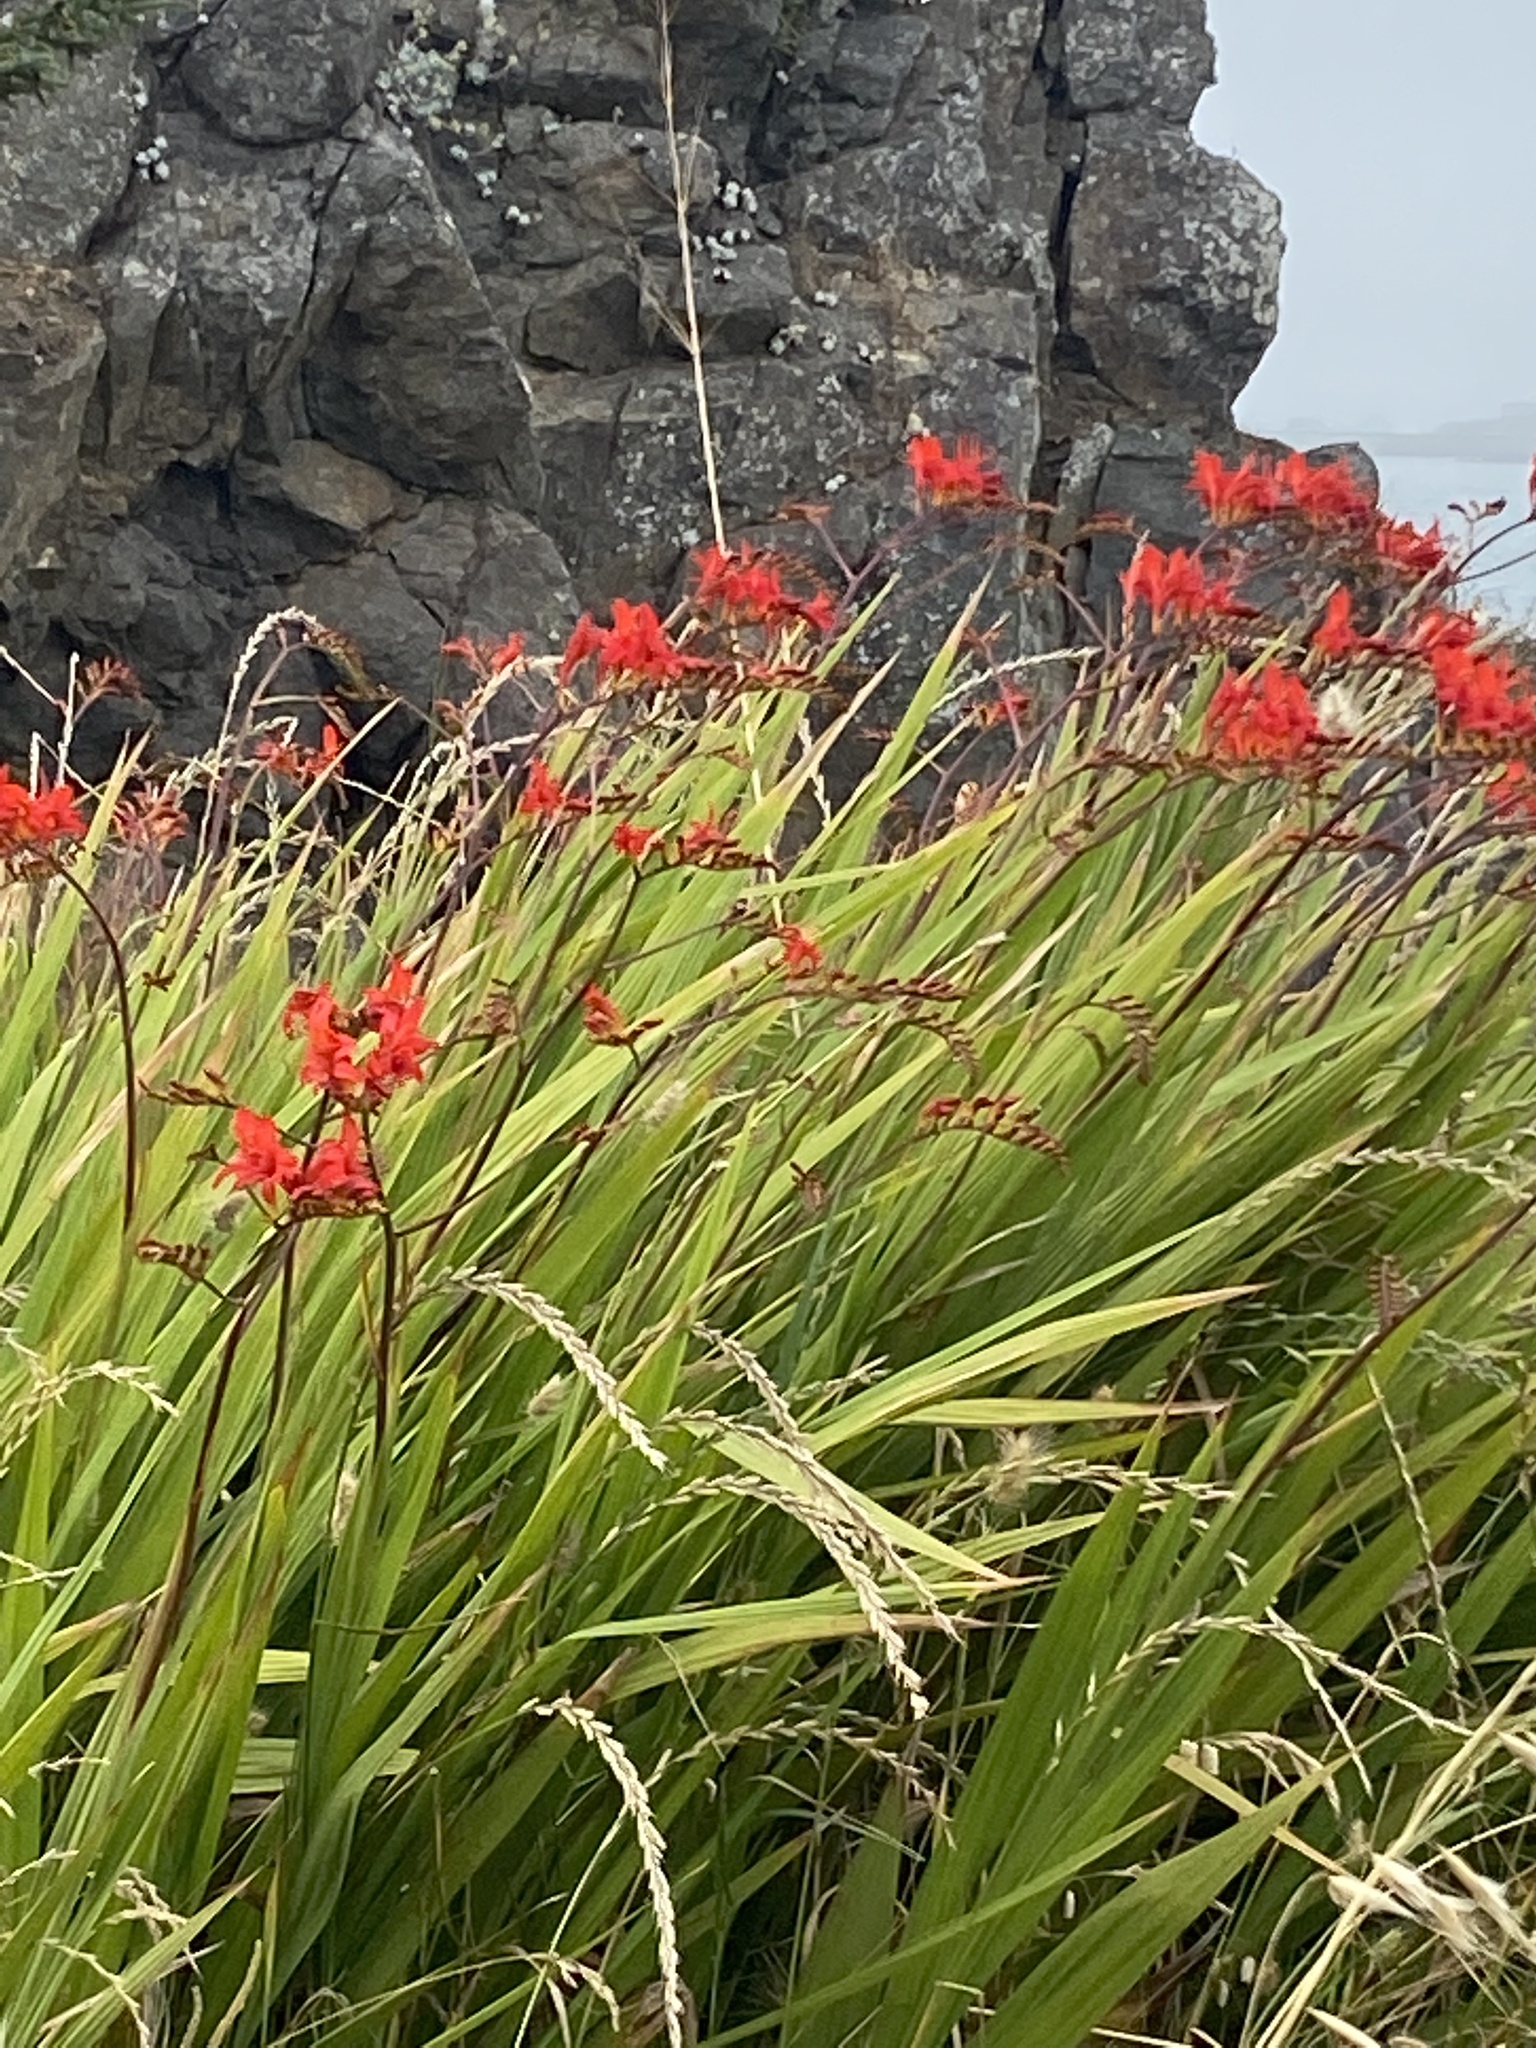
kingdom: Plantae
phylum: Tracheophyta
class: Liliopsida
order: Asparagales
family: Iridaceae
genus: Crocosmia
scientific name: Crocosmia
